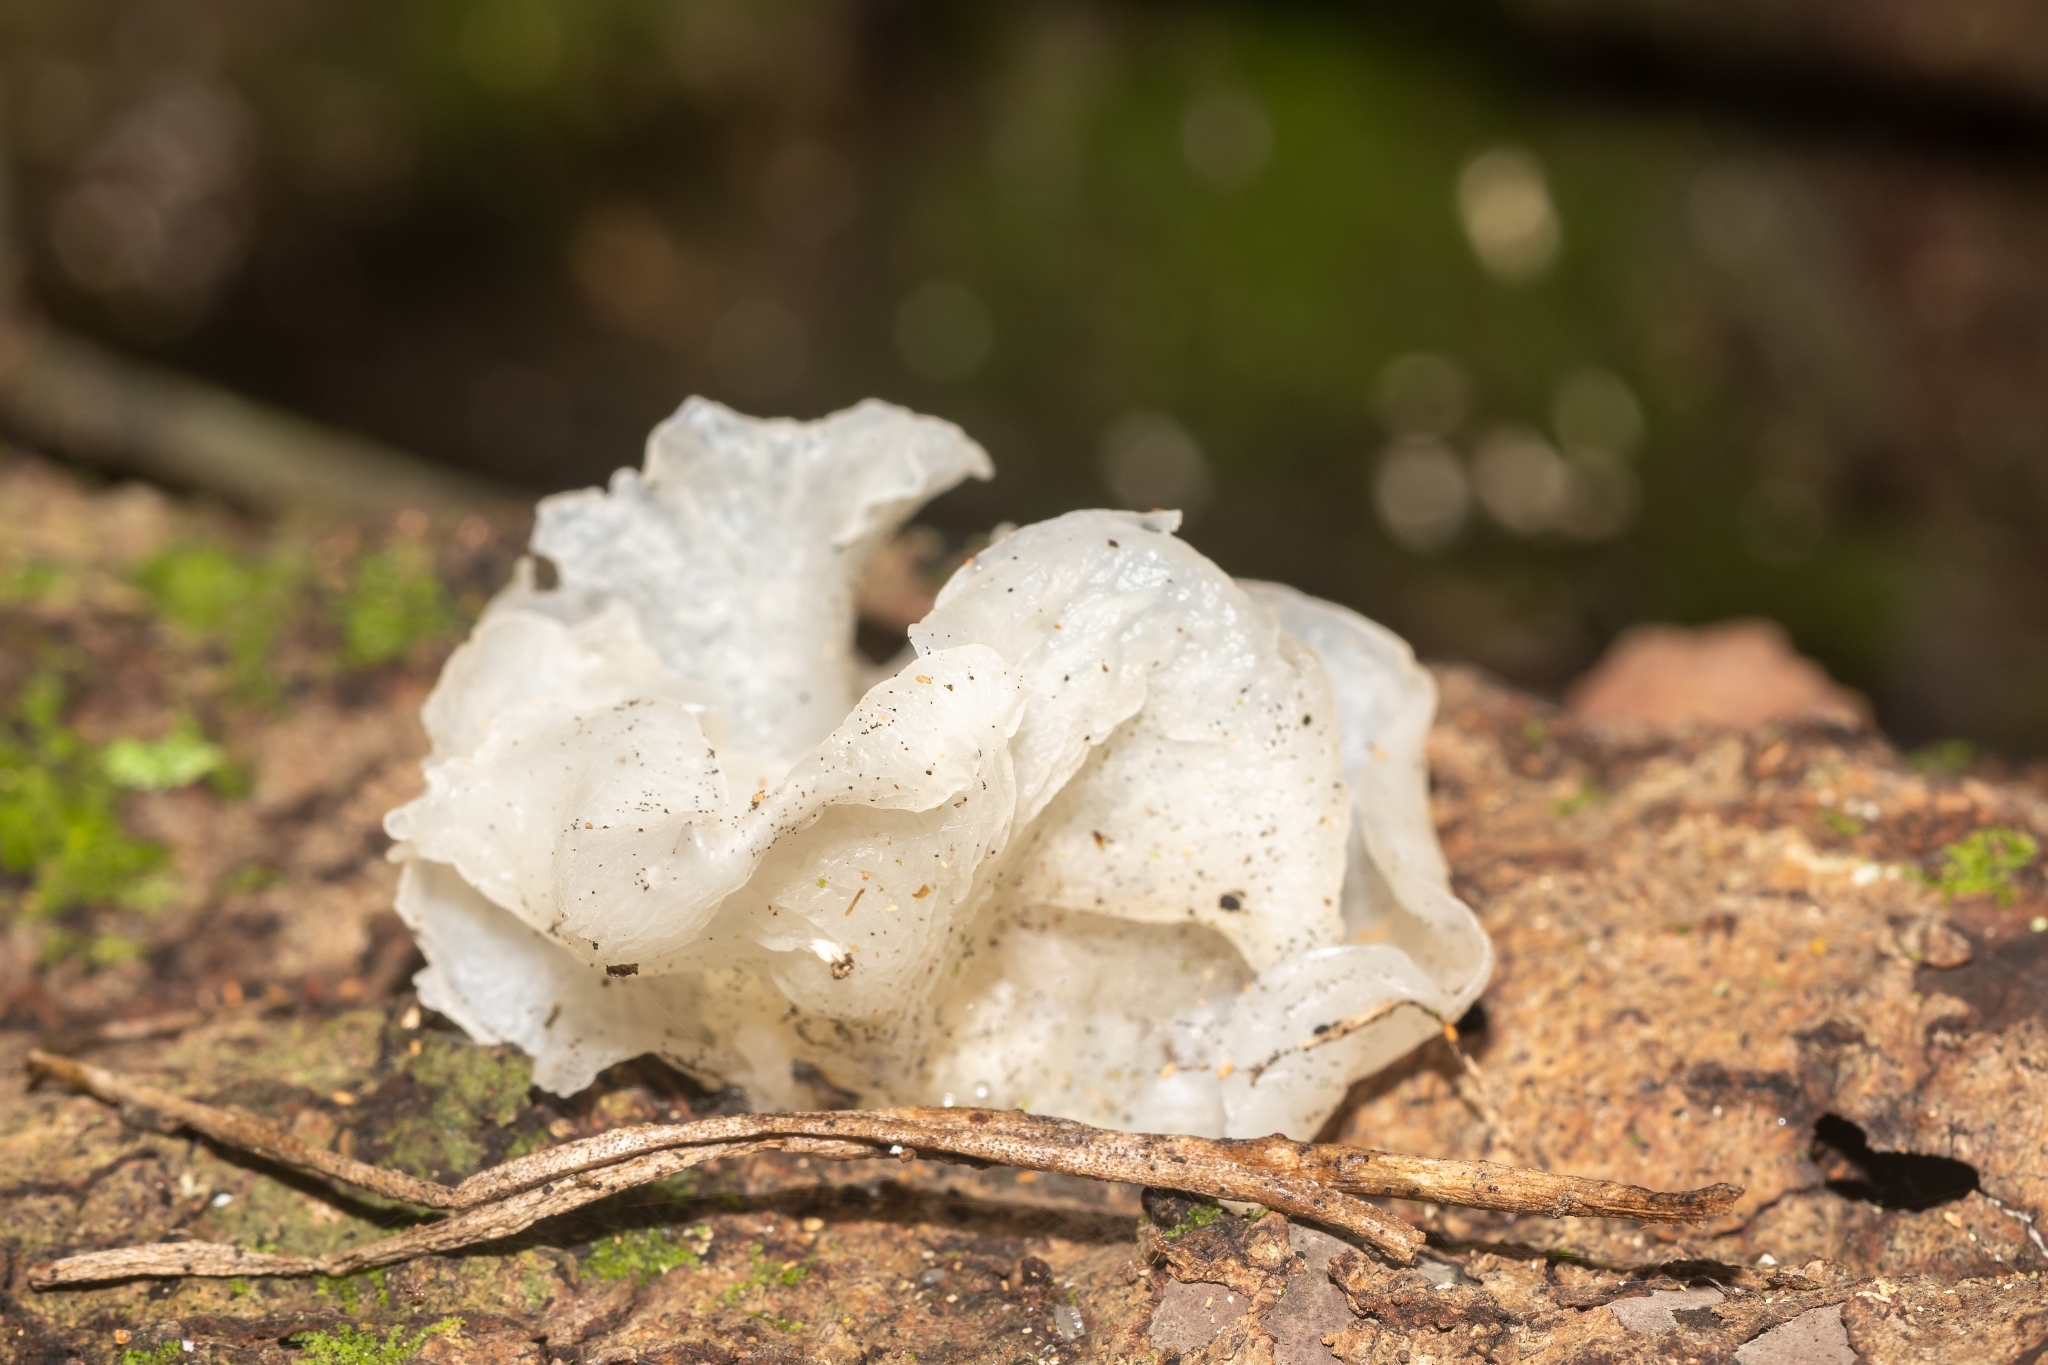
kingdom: Fungi
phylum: Basidiomycota
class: Tremellomycetes
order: Tremellales
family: Tremellaceae
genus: Tremella
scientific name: Tremella fuciformis
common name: Snow fungus
